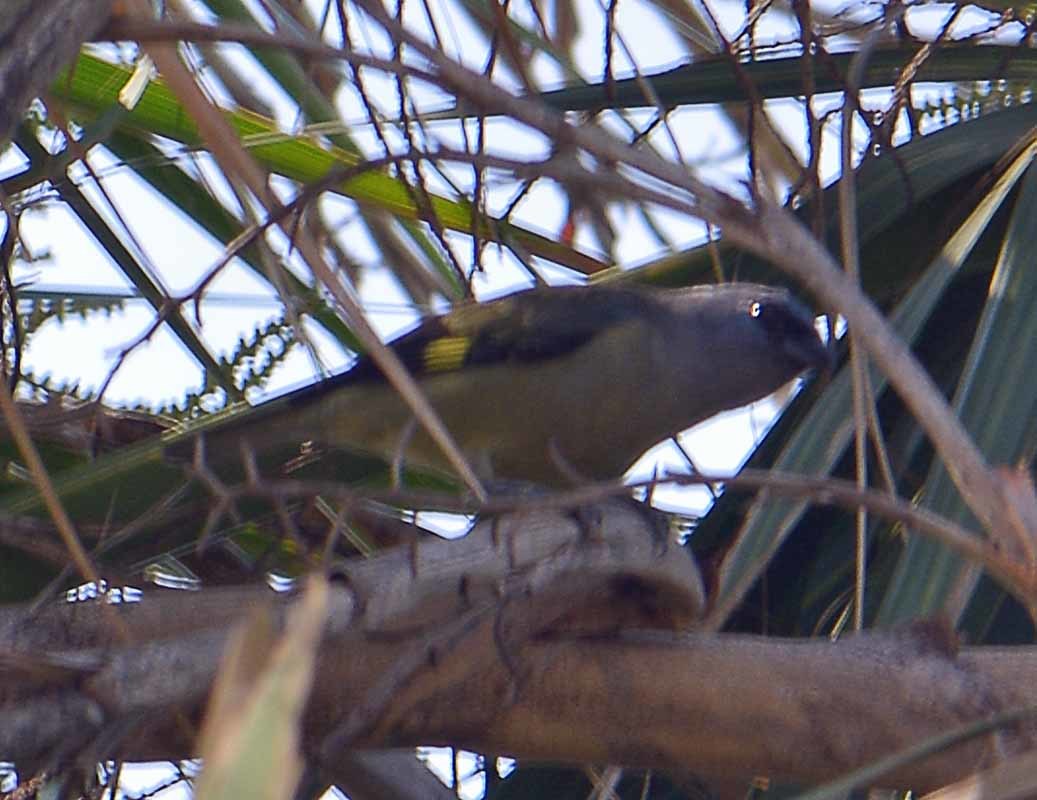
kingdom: Animalia
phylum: Chordata
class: Aves
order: Passeriformes
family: Thraupidae
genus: Thraupis
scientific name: Thraupis abbas
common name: Yellow-winged tanager
